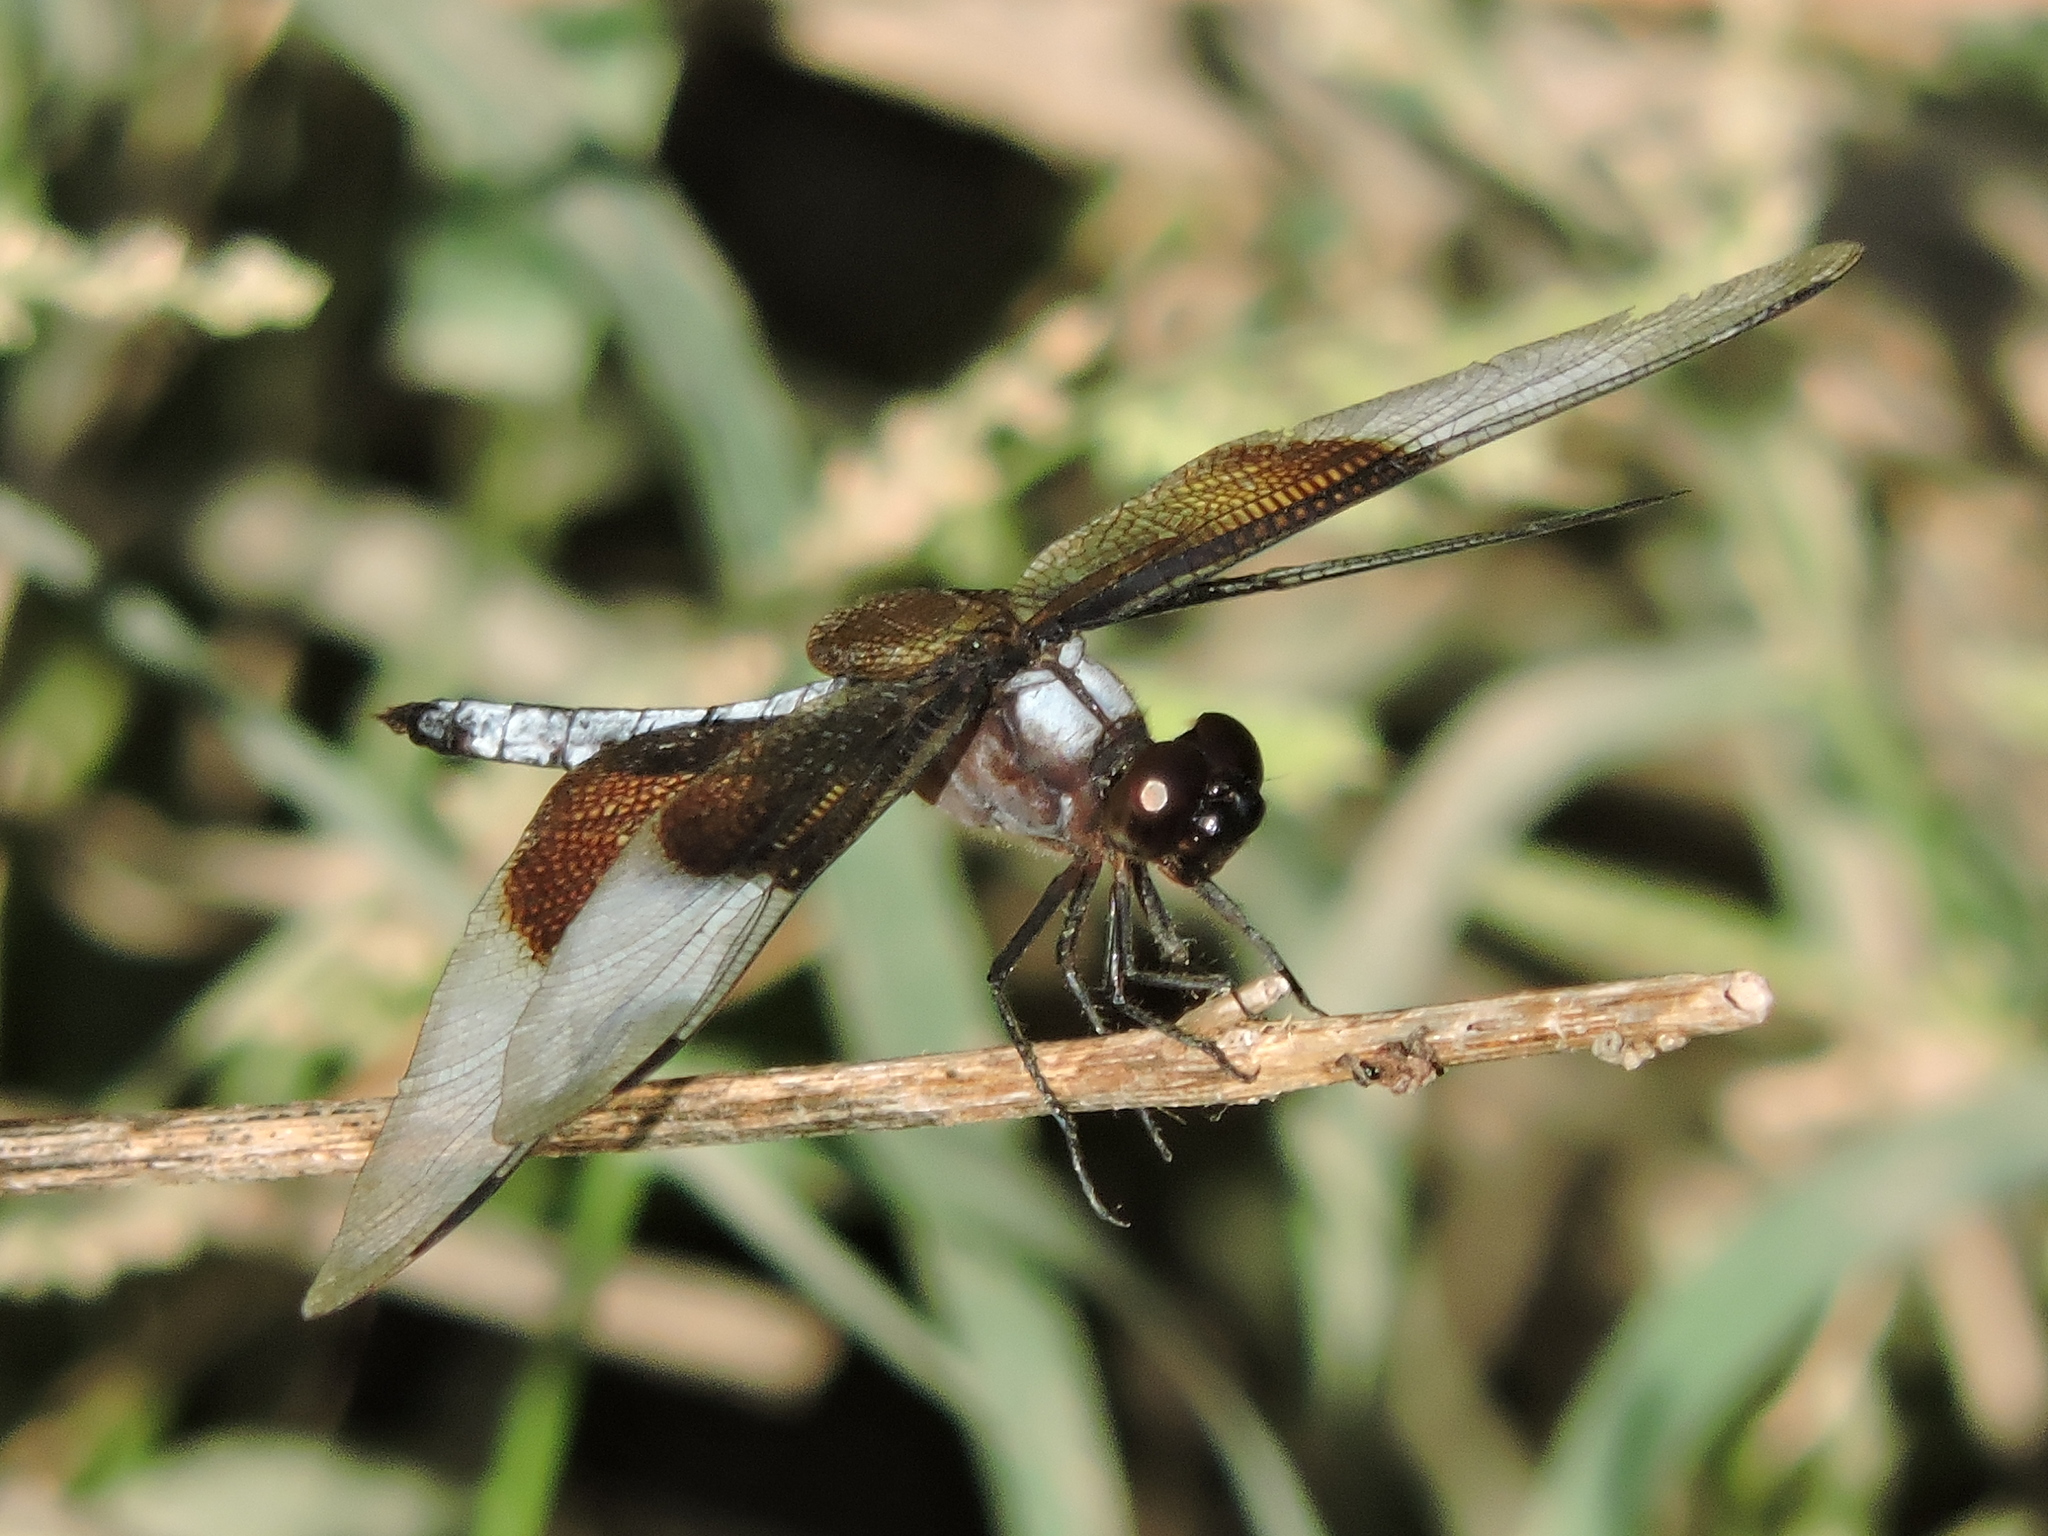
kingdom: Animalia
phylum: Arthropoda
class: Insecta
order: Odonata
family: Libellulidae
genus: Libellula
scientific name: Libellula luctuosa
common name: Widow skimmer
